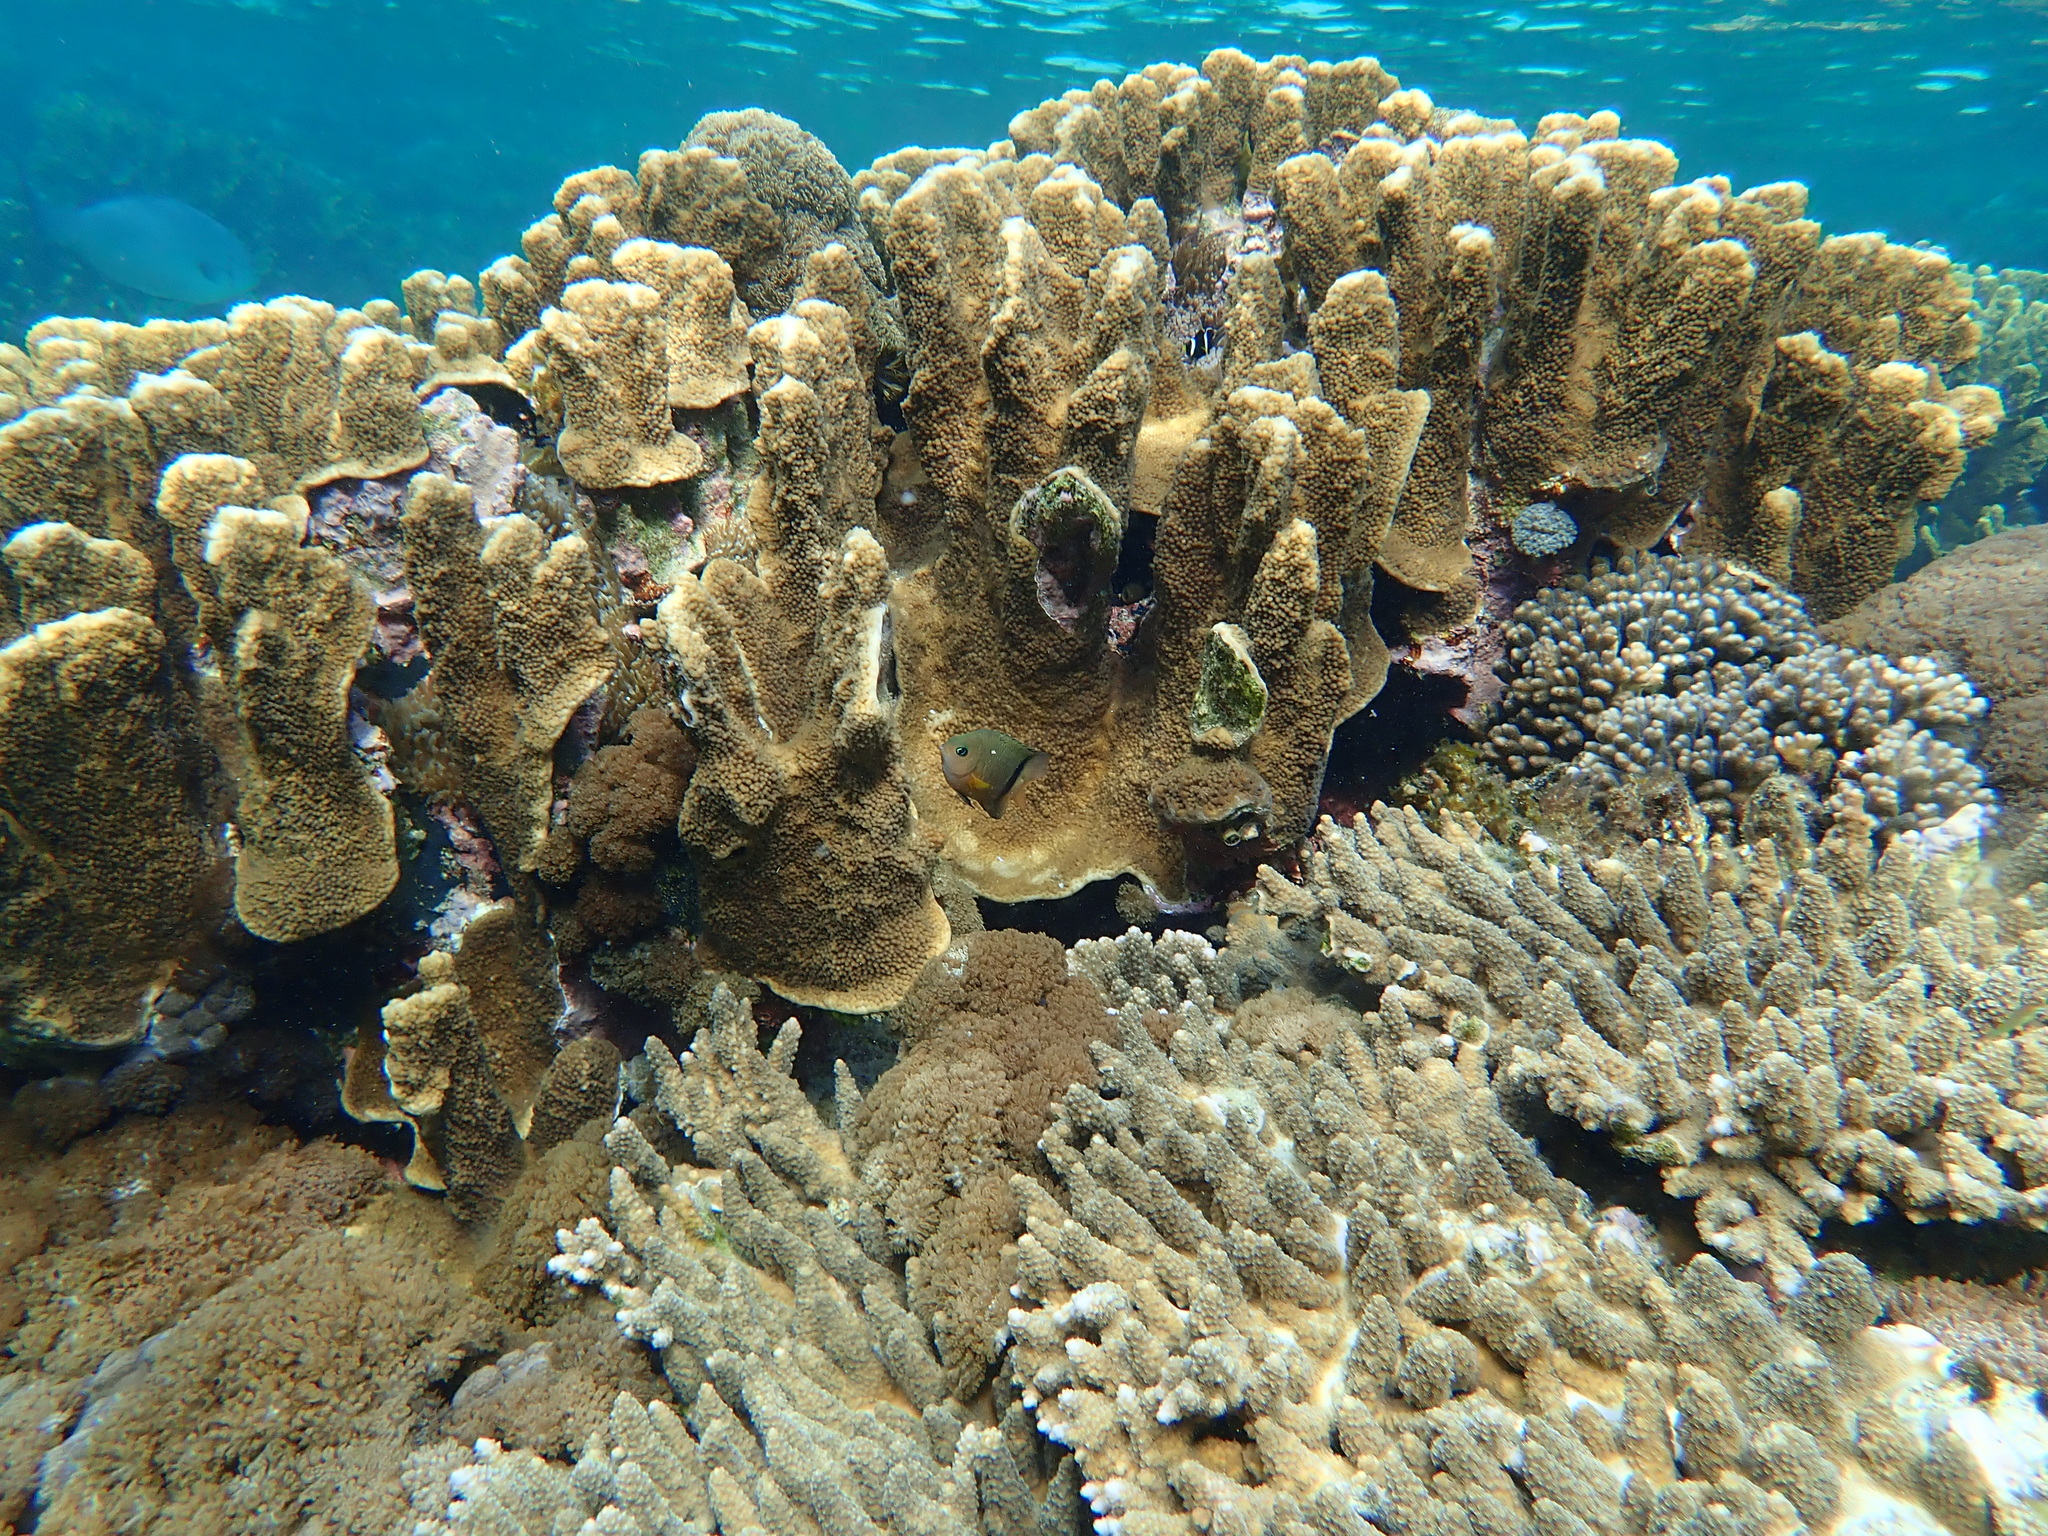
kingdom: Animalia
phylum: Chordata
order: Perciformes
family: Pomacentridae
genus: Plectroglyphidodon
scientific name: Plectroglyphidodon dickii
